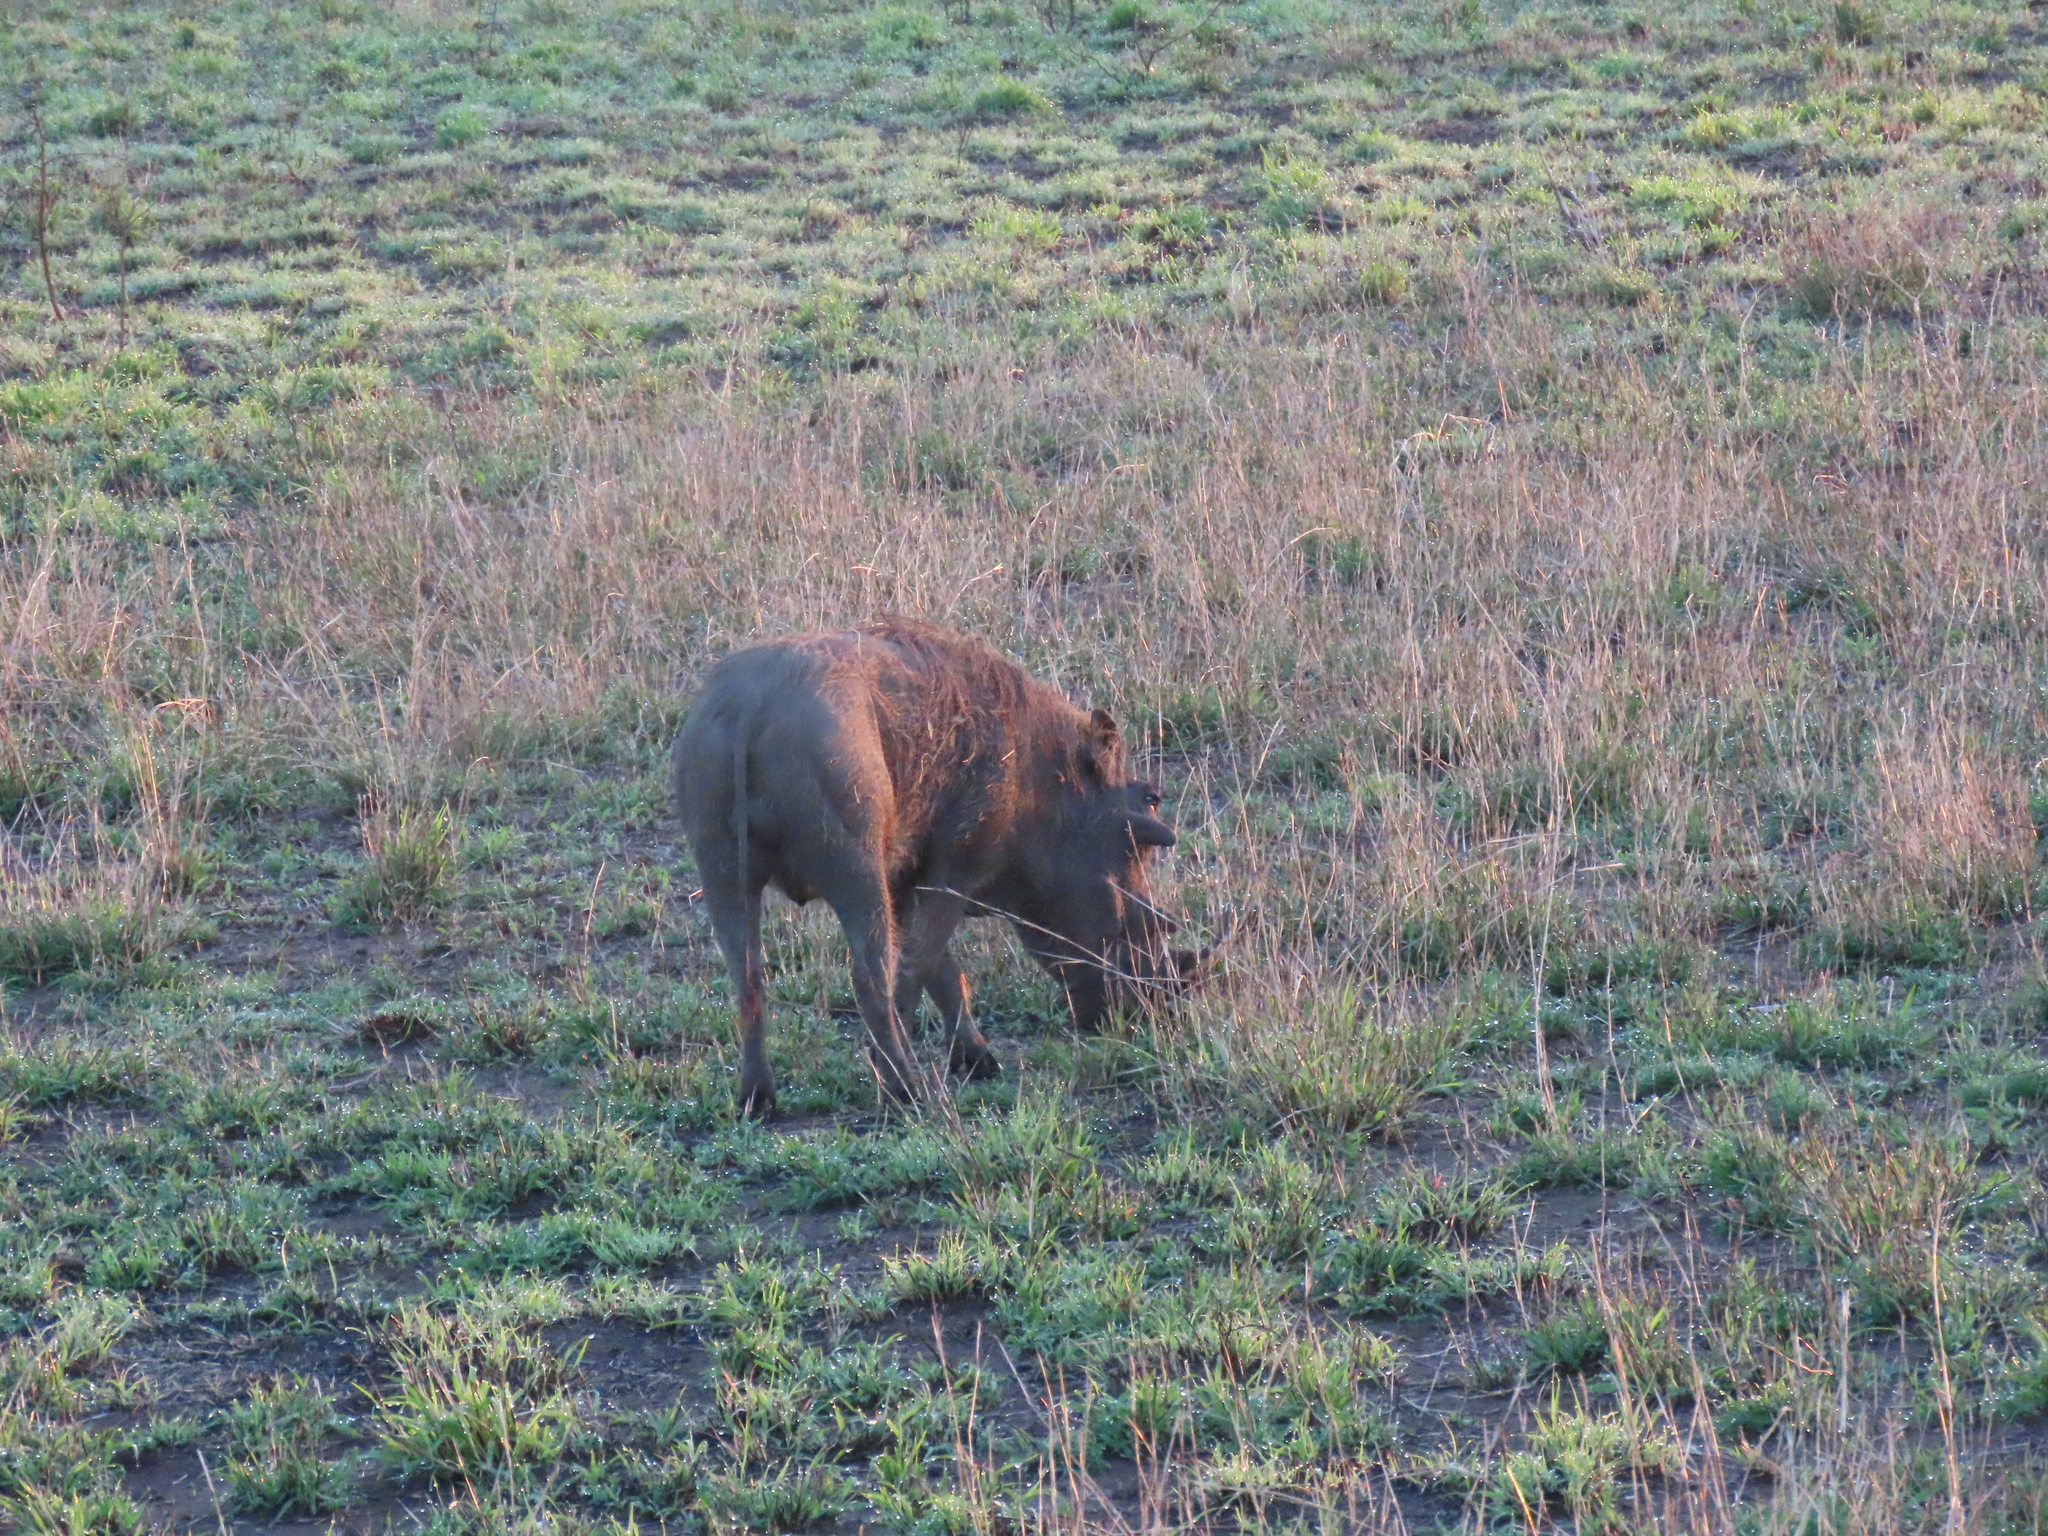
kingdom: Animalia
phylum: Chordata
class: Mammalia
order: Artiodactyla
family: Suidae
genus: Phacochoerus
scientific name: Phacochoerus africanus
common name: Common warthog
